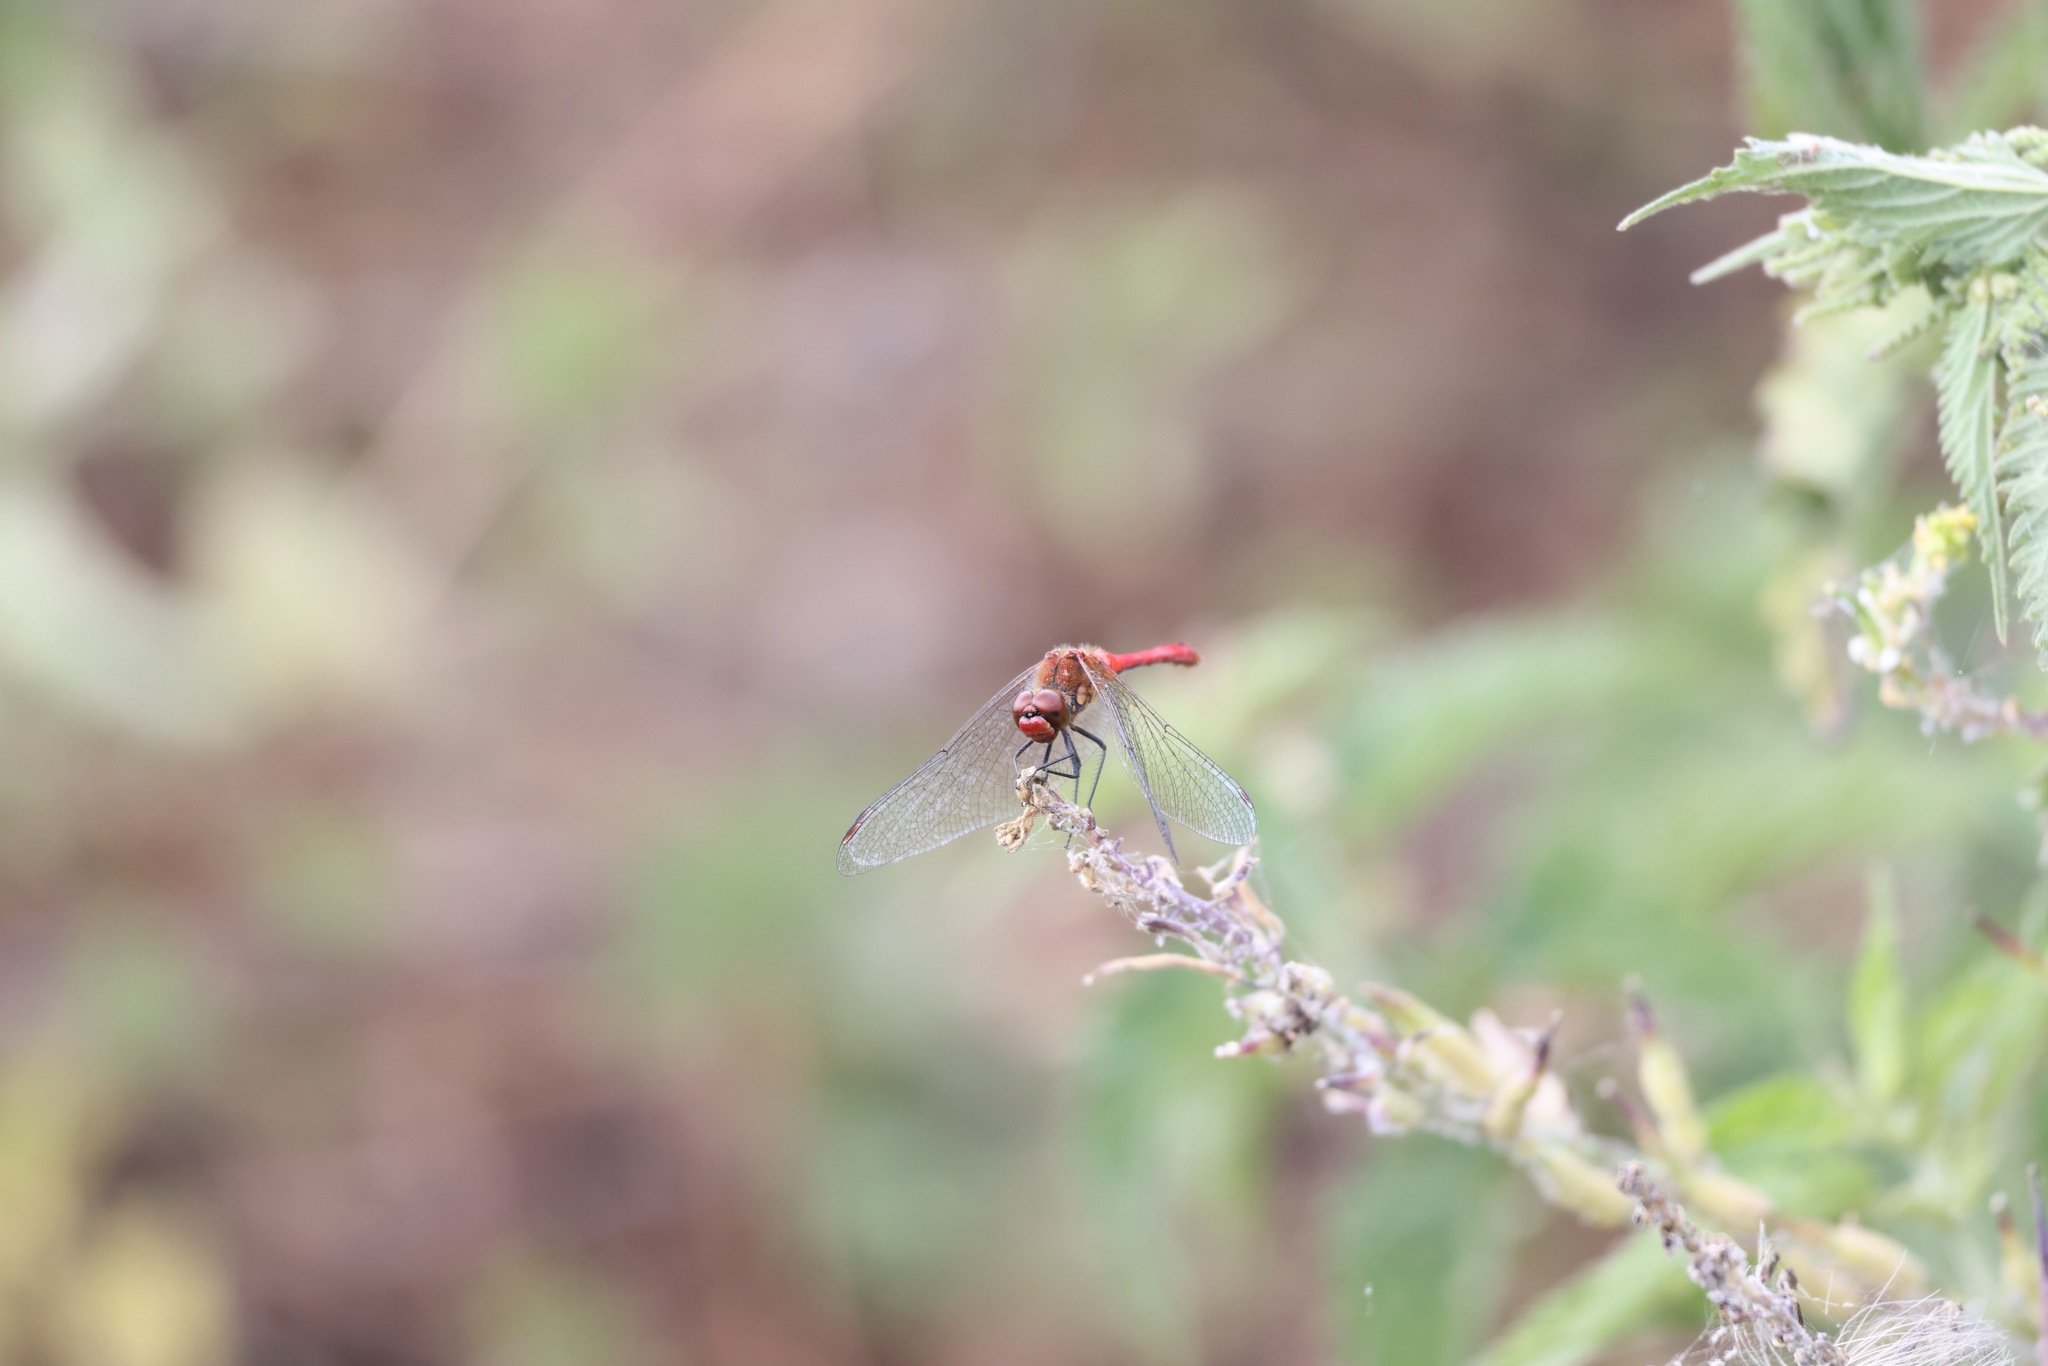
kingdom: Animalia
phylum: Arthropoda
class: Insecta
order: Odonata
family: Libellulidae
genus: Sympetrum
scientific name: Sympetrum sanguineum
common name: Ruddy darter
